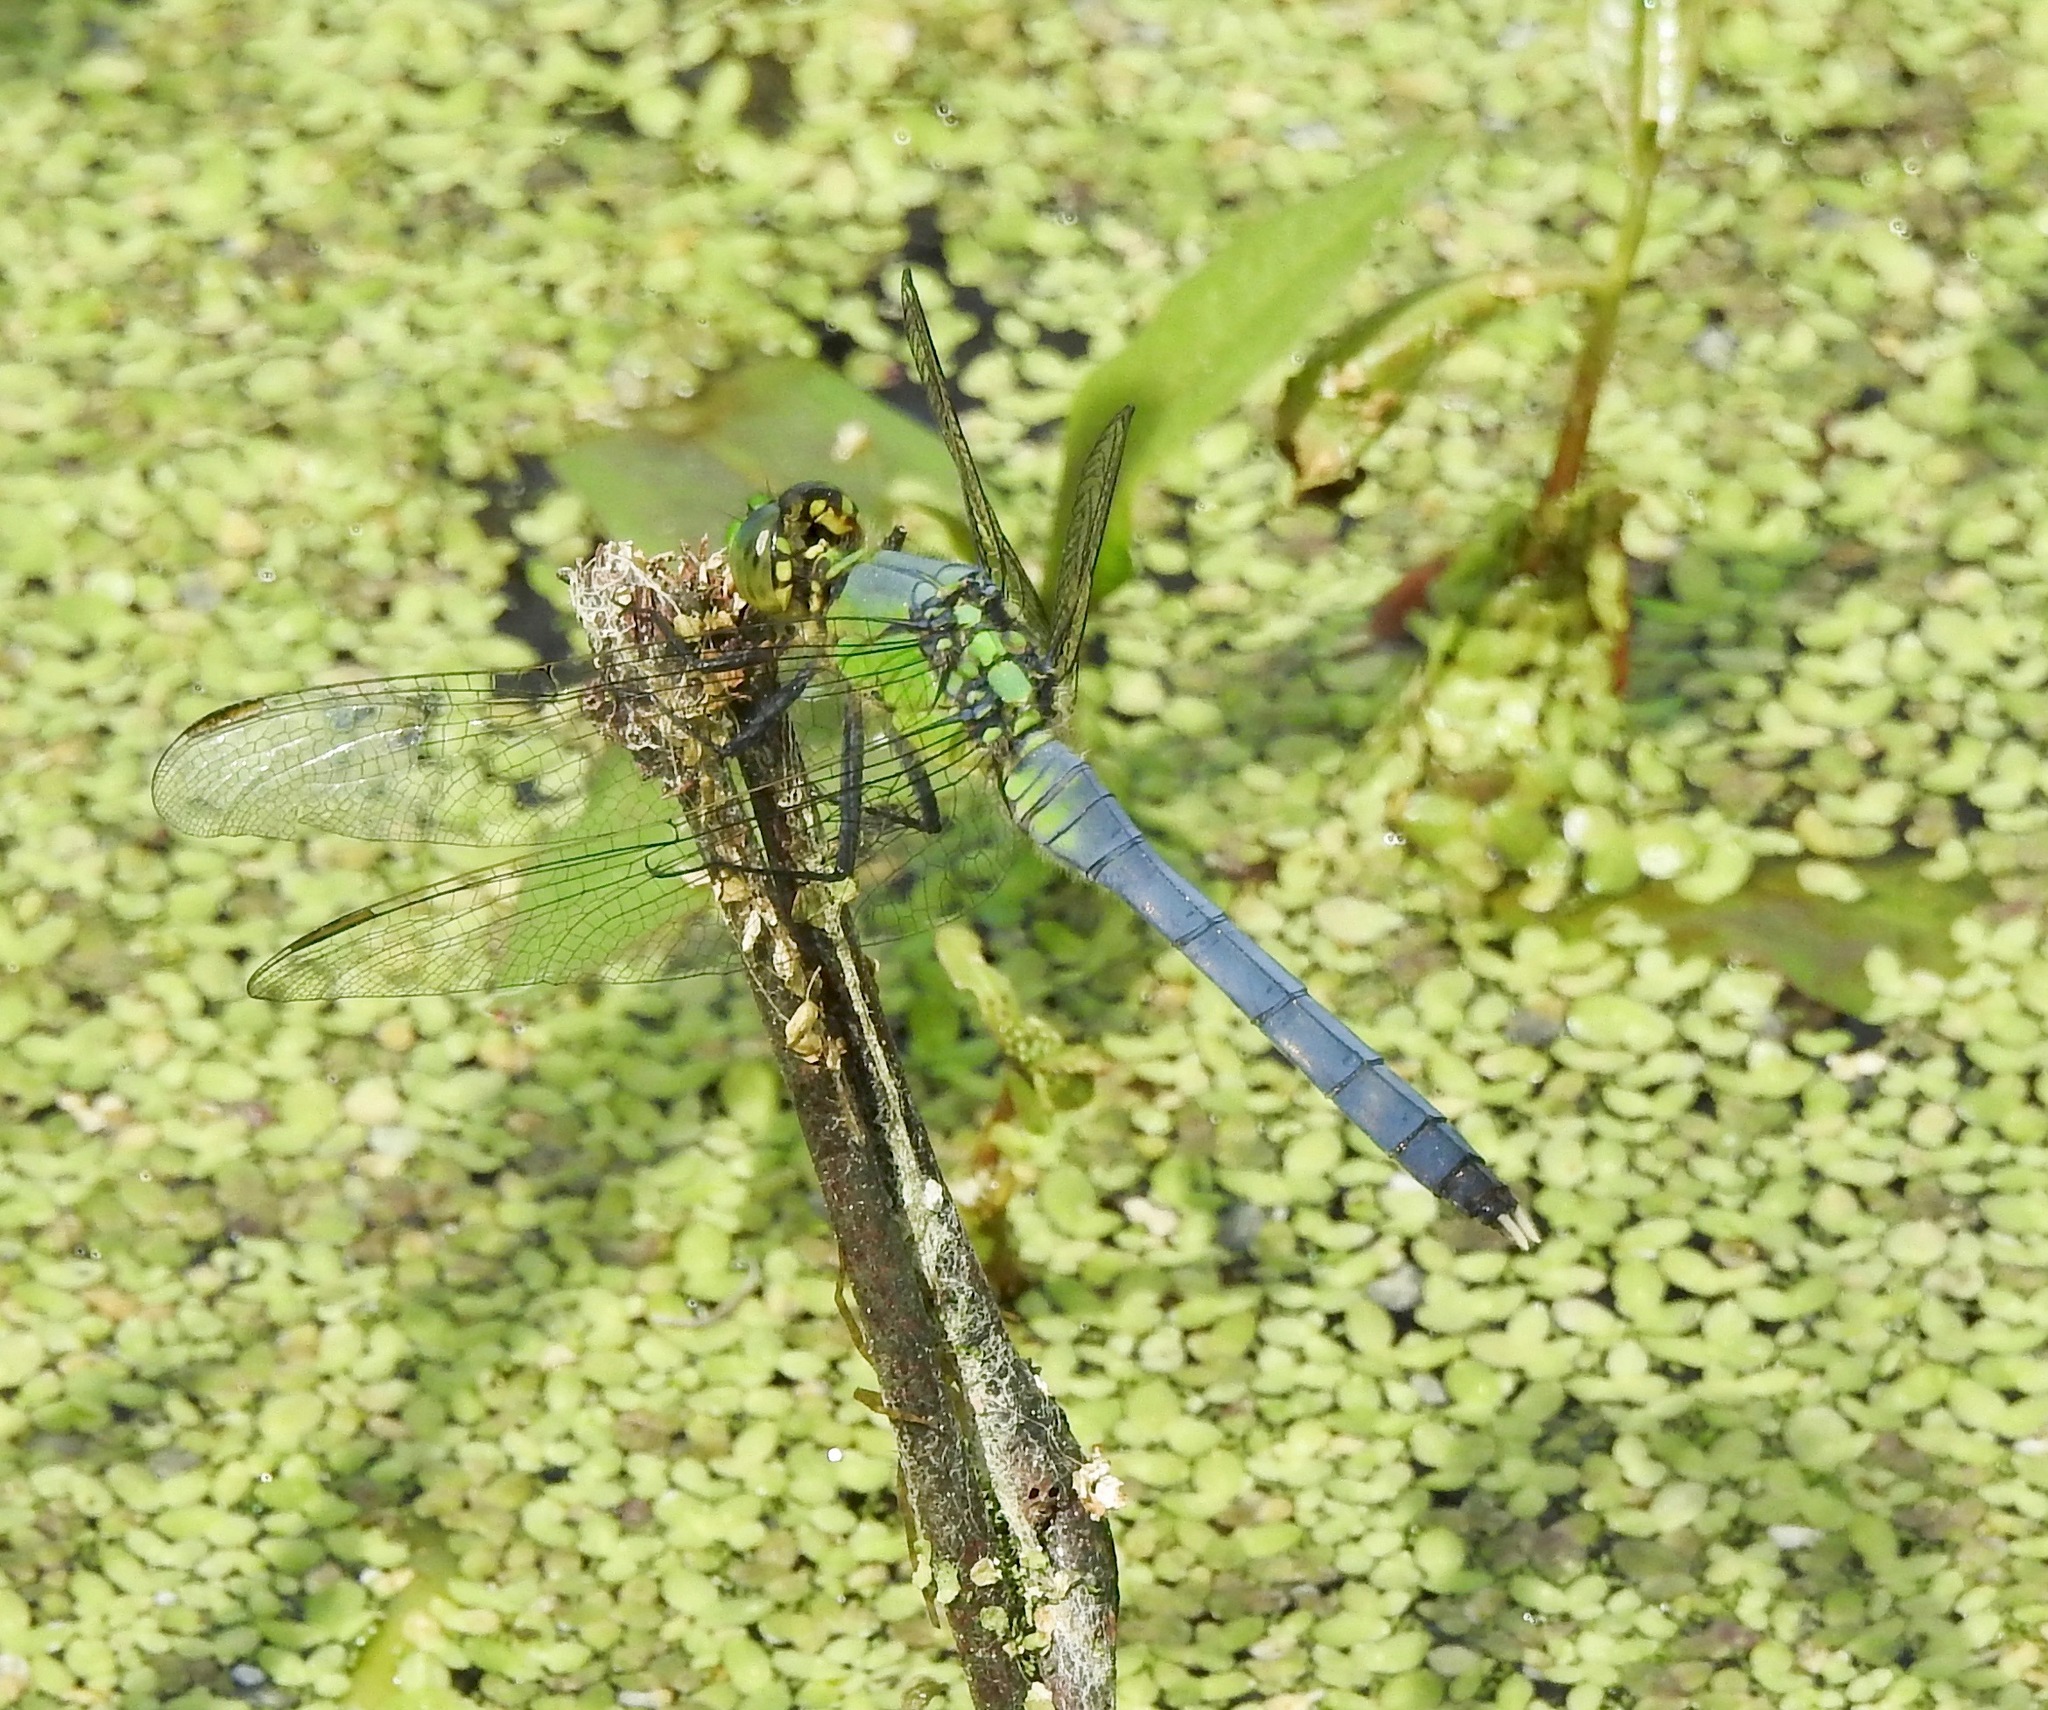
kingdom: Animalia
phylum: Arthropoda
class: Insecta
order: Odonata
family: Libellulidae
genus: Erythemis
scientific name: Erythemis simplicicollis
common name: Eastern pondhawk
